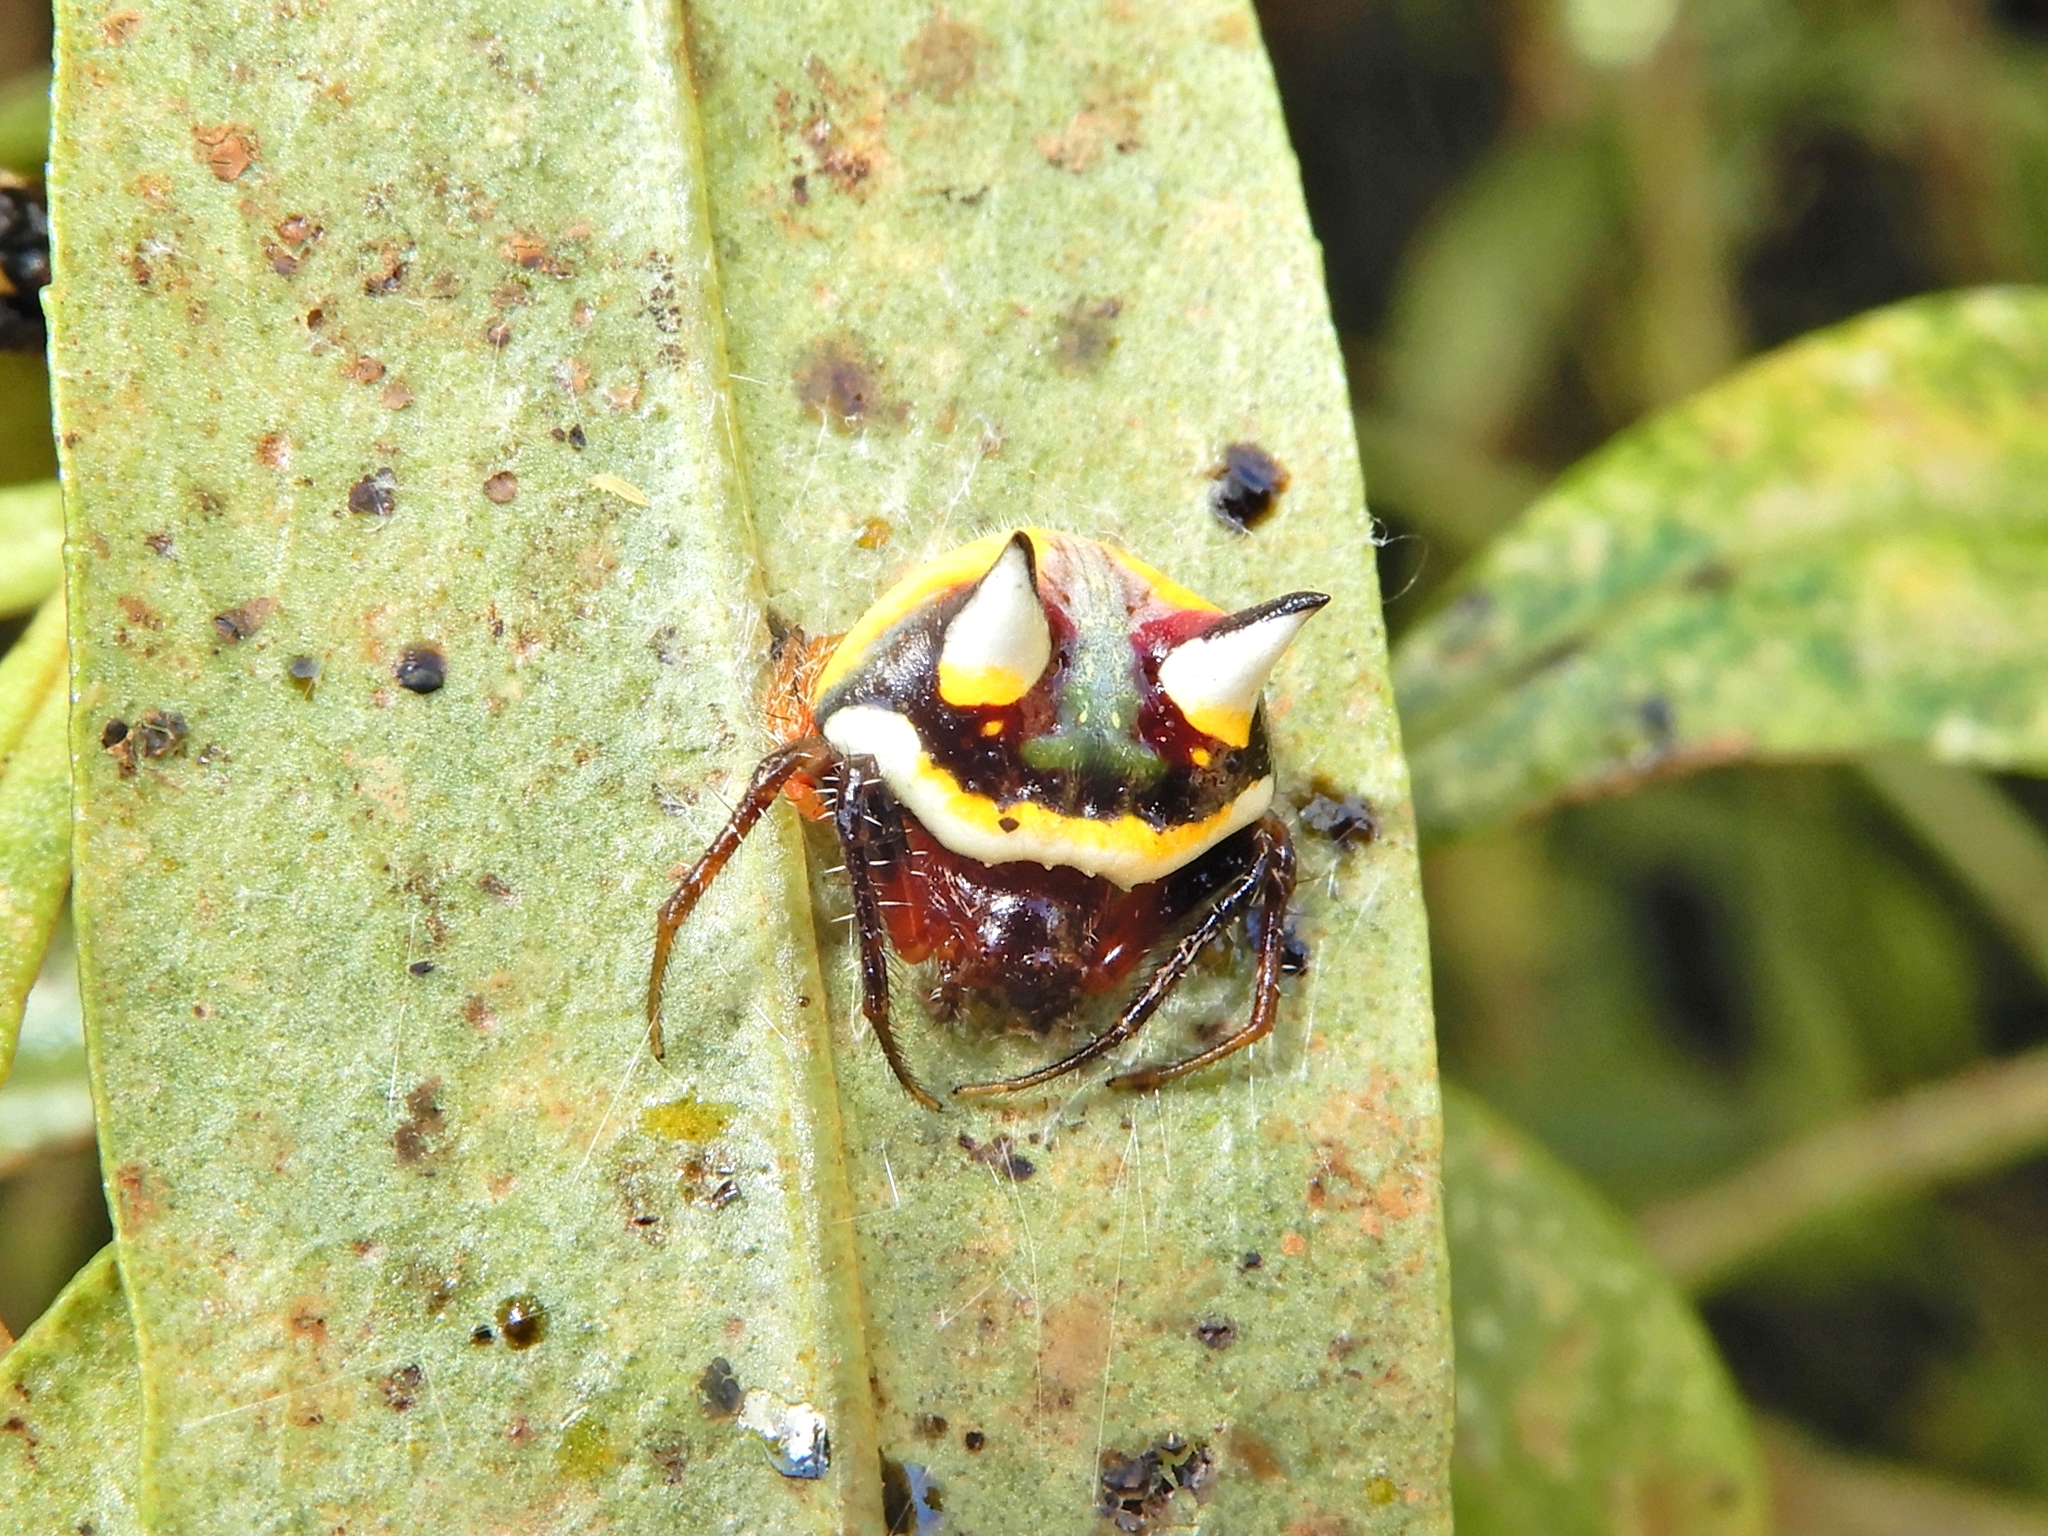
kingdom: Animalia
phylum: Arthropoda
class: Arachnida
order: Araneae
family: Araneidae
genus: Poecilopachys
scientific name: Poecilopachys australasia
